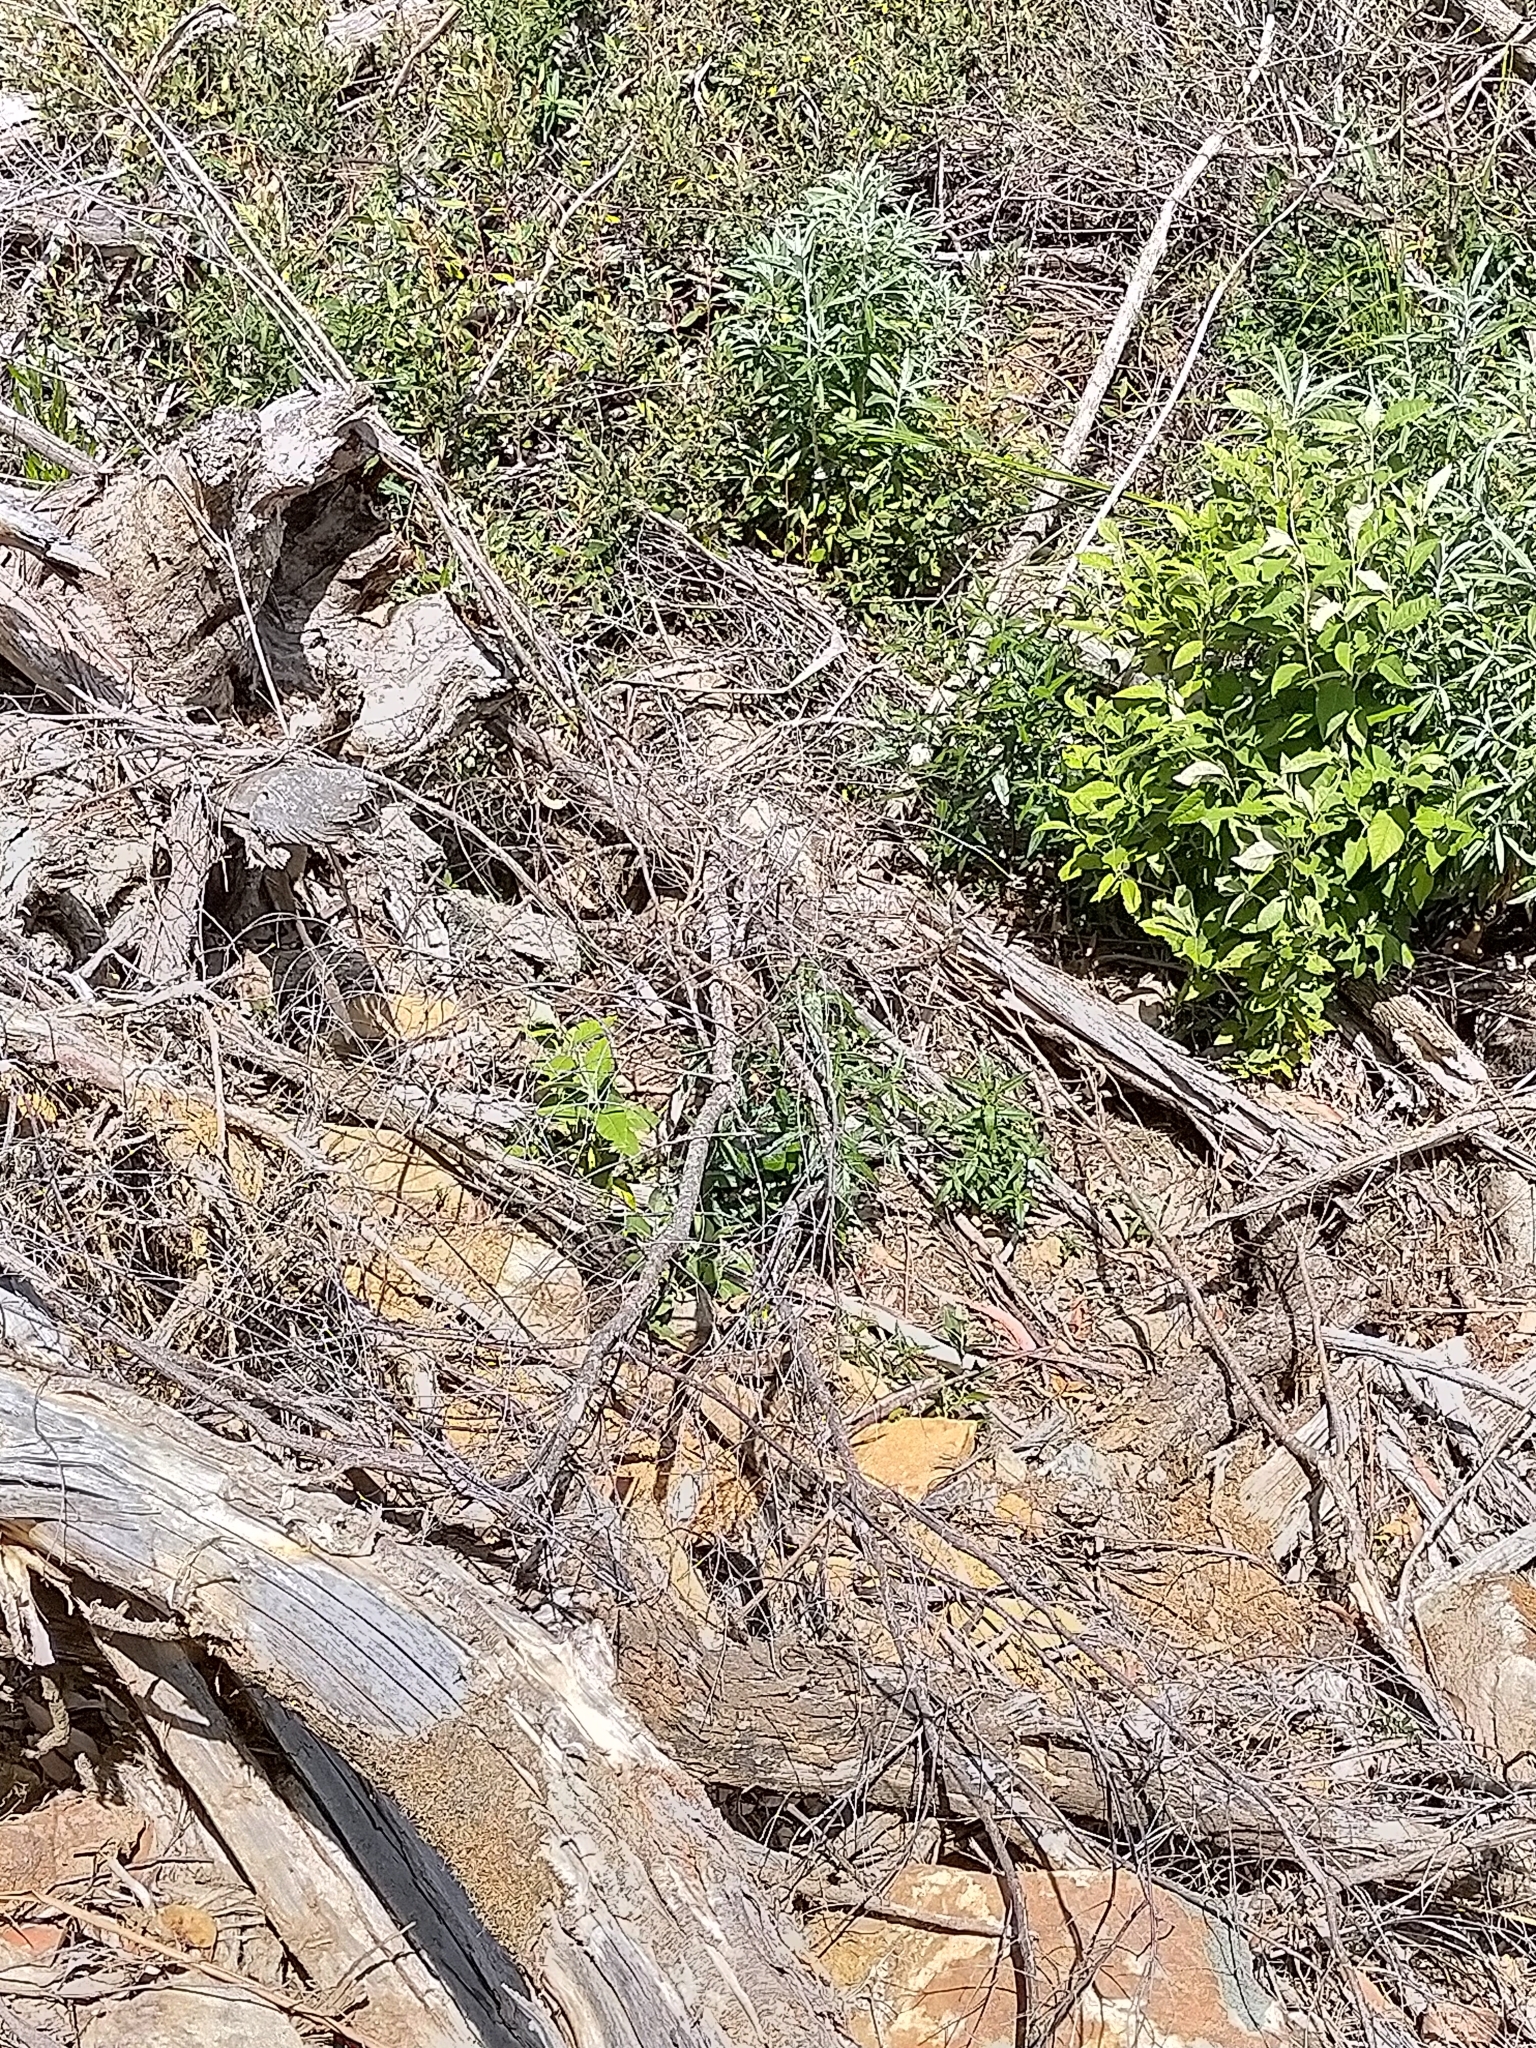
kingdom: Animalia
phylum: Chordata
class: Squamata
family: Elapidae
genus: Notechis
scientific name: Notechis scutatus
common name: Mainland tiger snake
